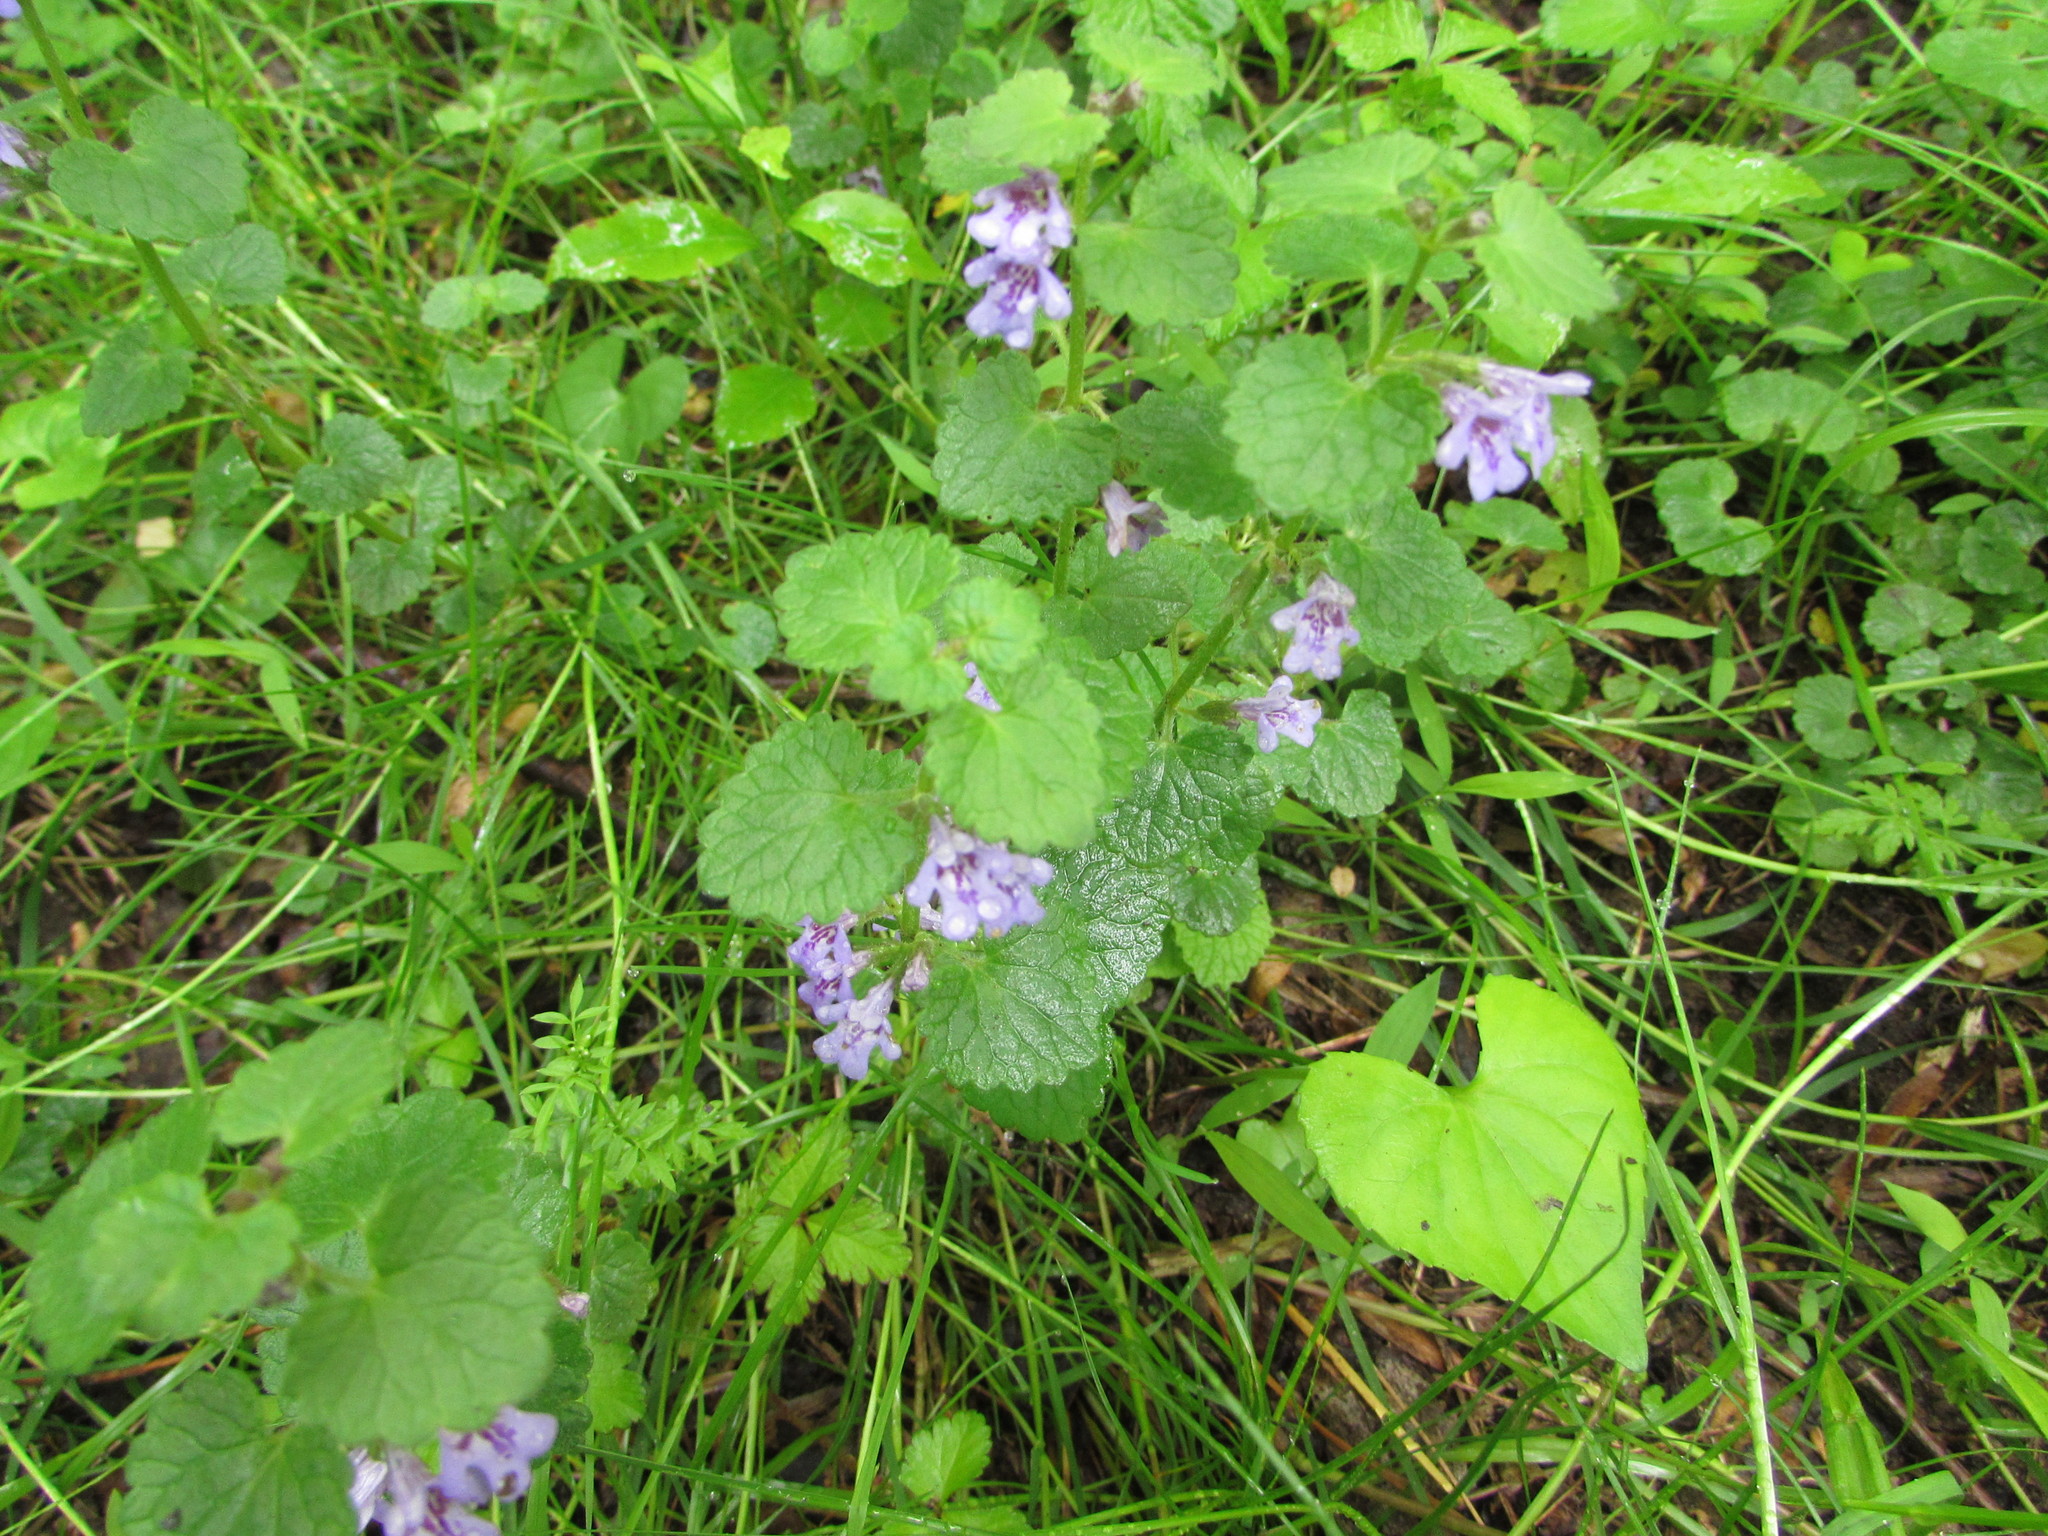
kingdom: Plantae
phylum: Tracheophyta
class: Magnoliopsida
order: Lamiales
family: Lamiaceae
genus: Glechoma
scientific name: Glechoma hederacea
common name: Ground ivy
